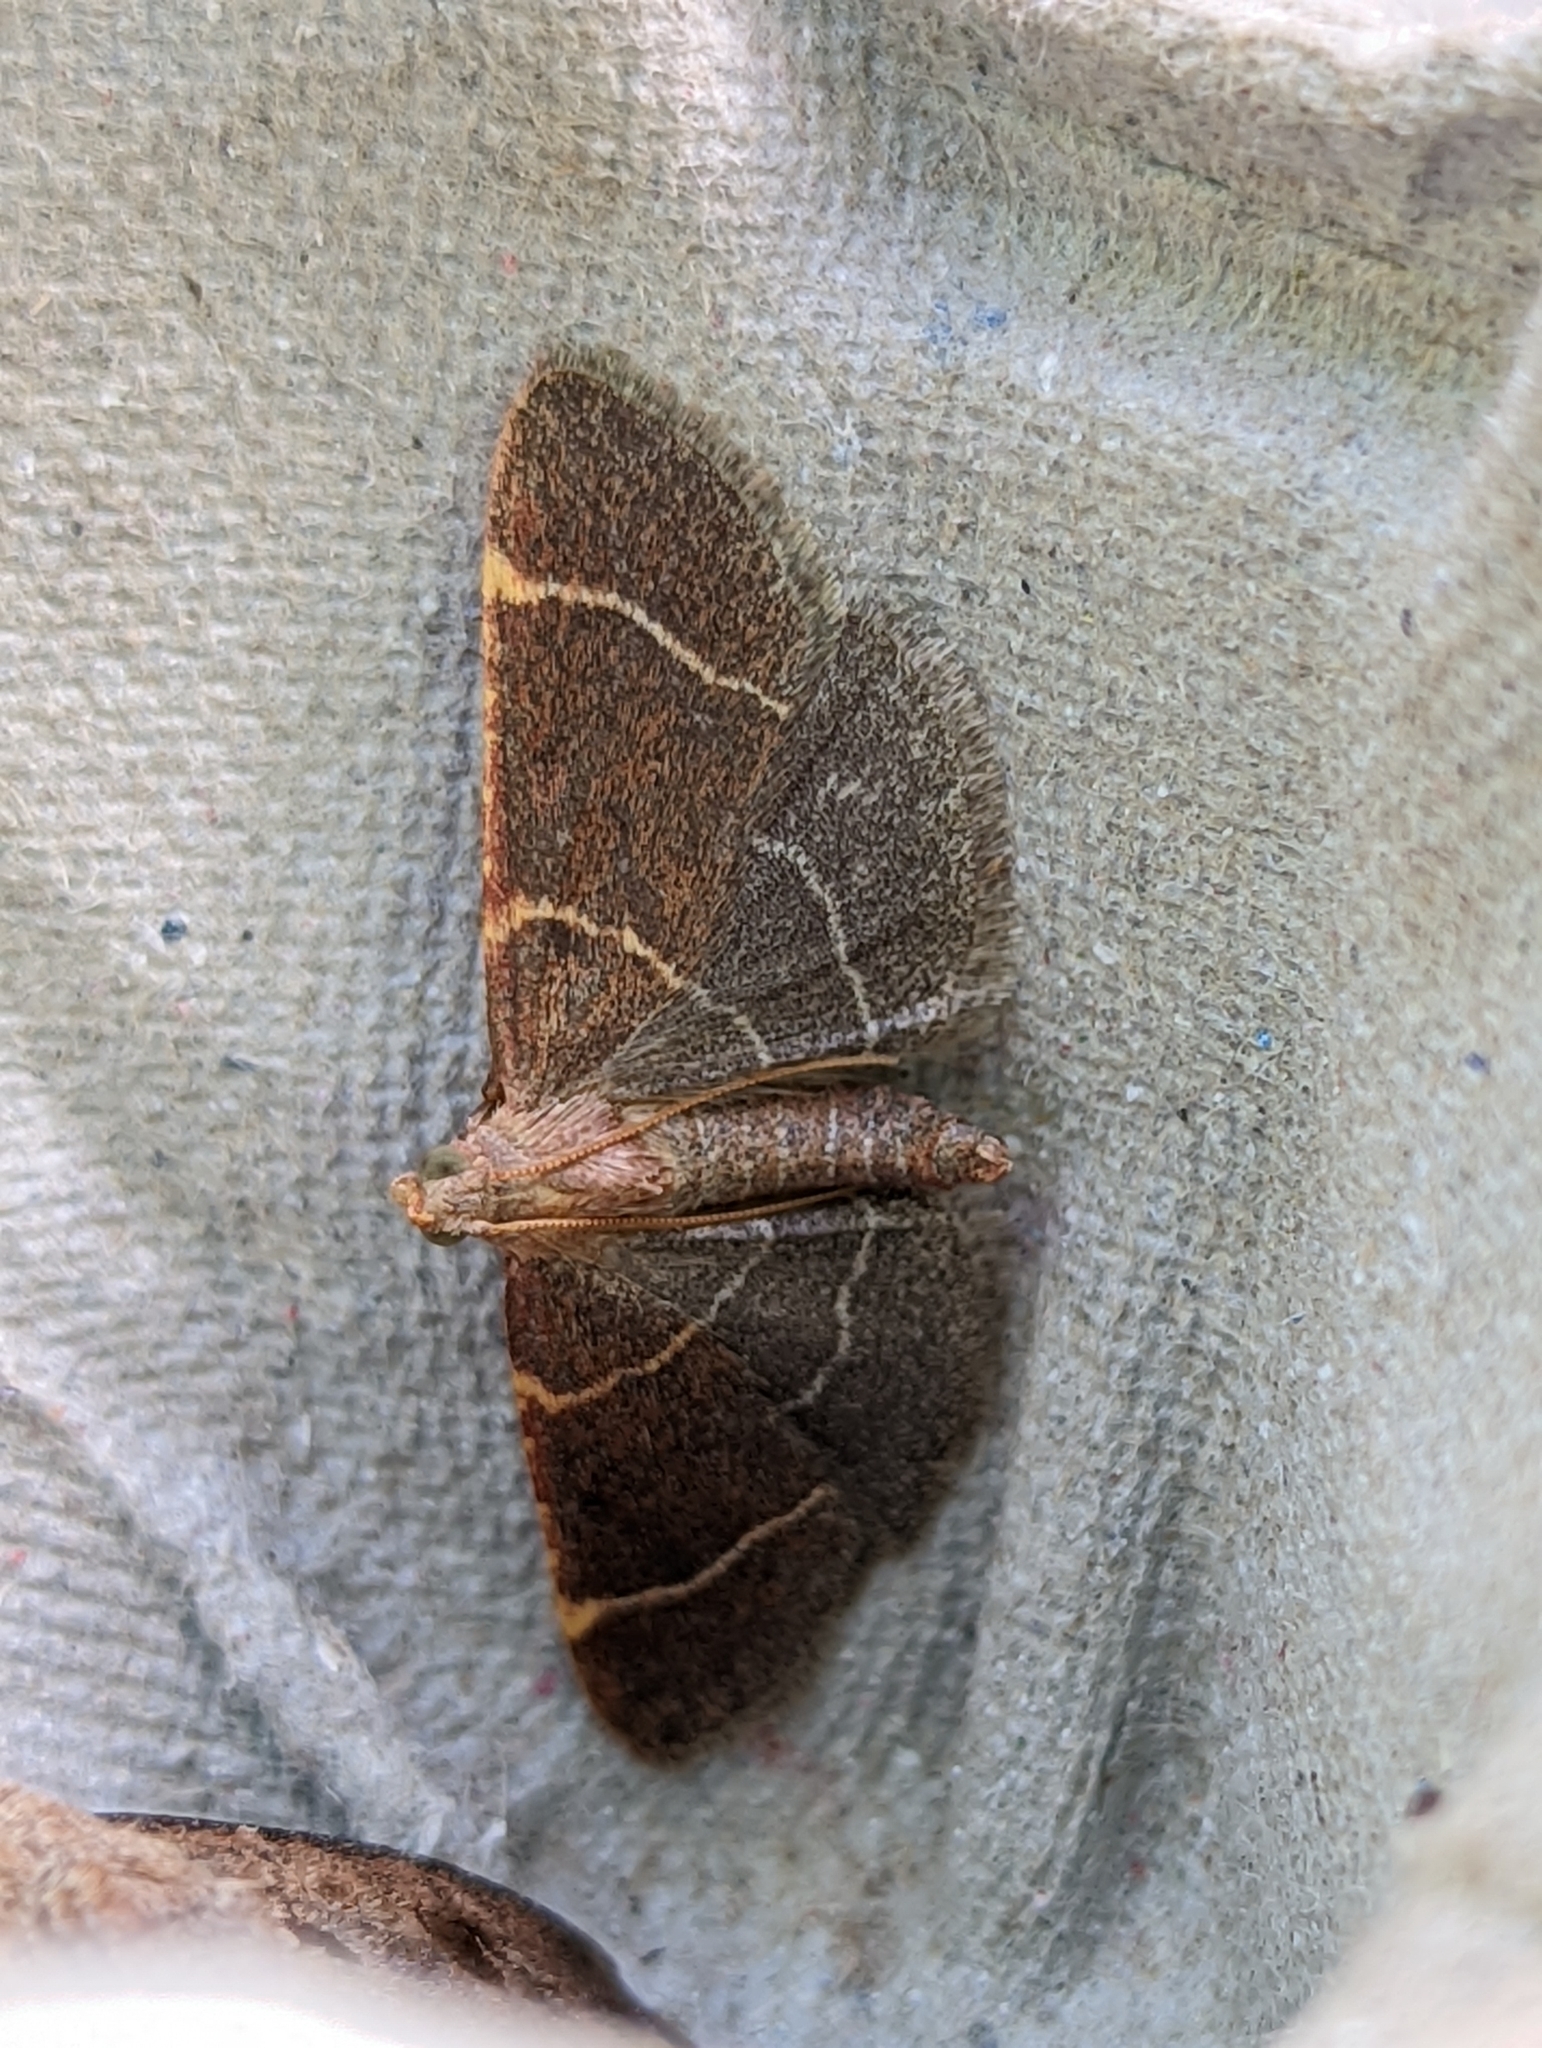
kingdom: Animalia
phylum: Arthropoda
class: Insecta
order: Lepidoptera
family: Pyralidae
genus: Hypsopygia
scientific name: Hypsopygia glaucinalis
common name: Double-striped tabby
